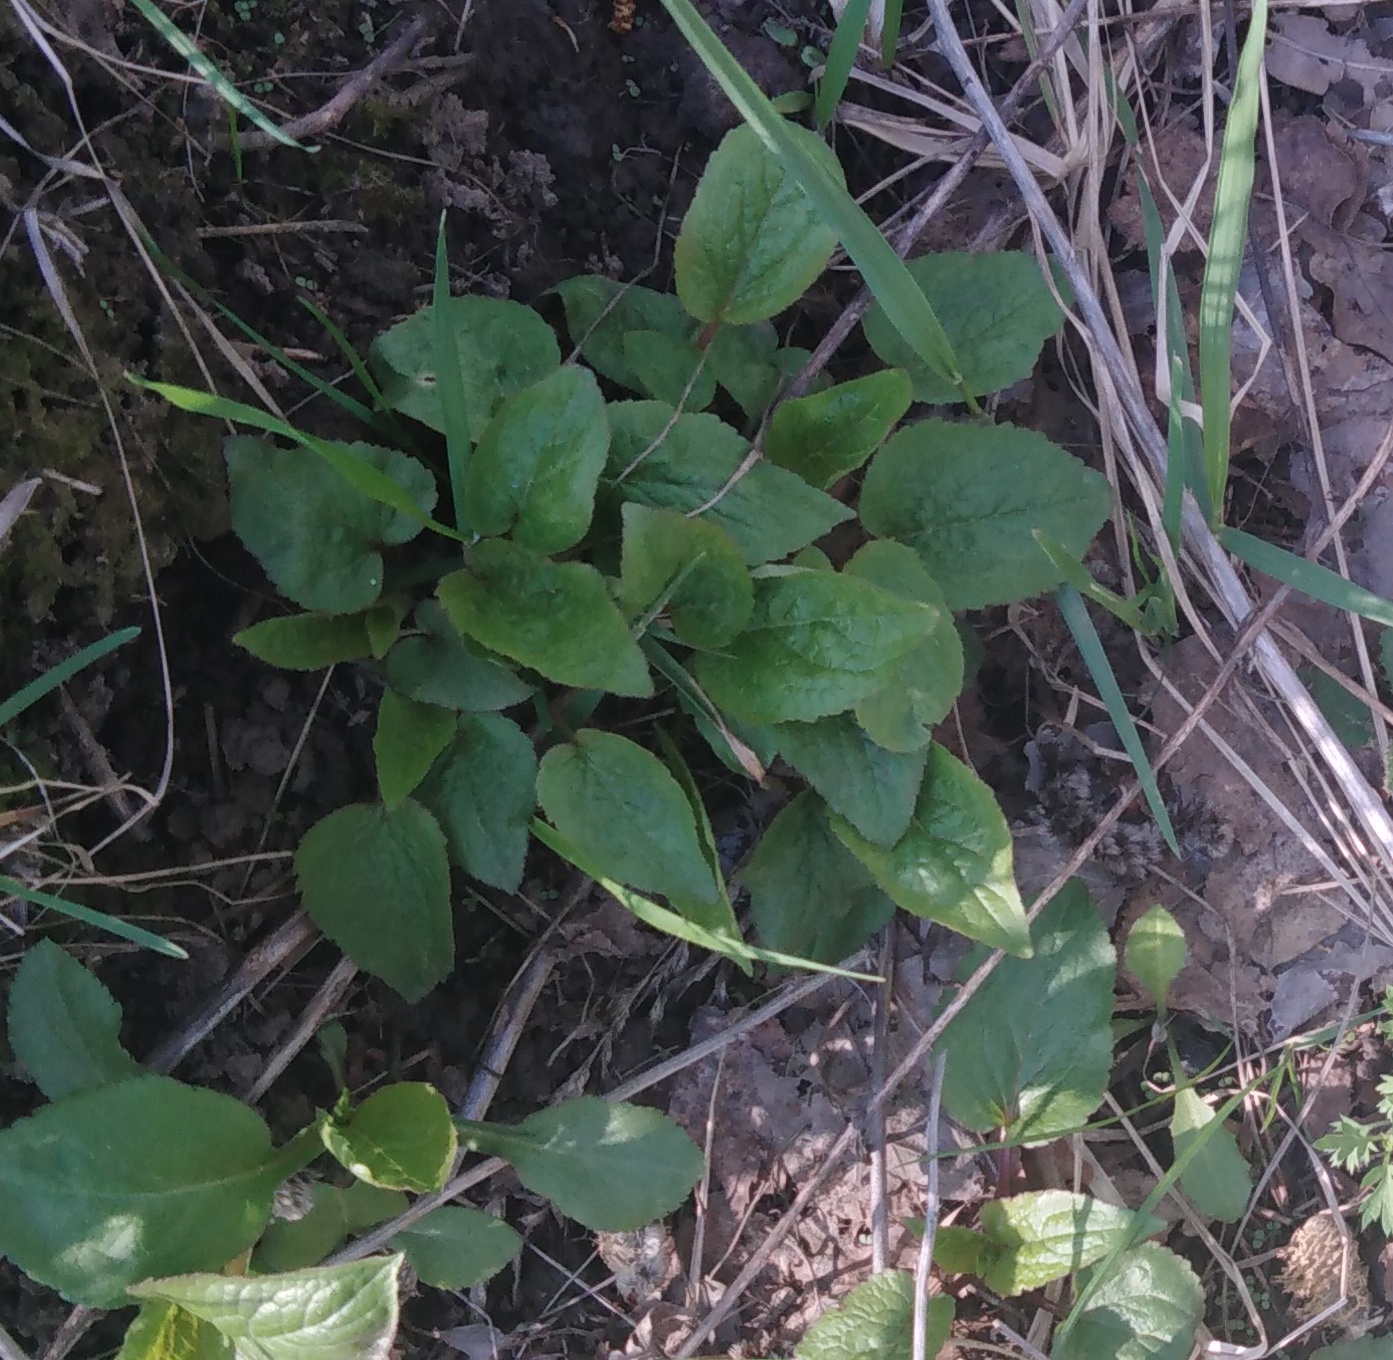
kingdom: Plantae
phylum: Tracheophyta
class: Magnoliopsida
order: Asterales
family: Campanulaceae
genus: Campanula
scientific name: Campanula rapunculoides
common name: Creeping bellflower
